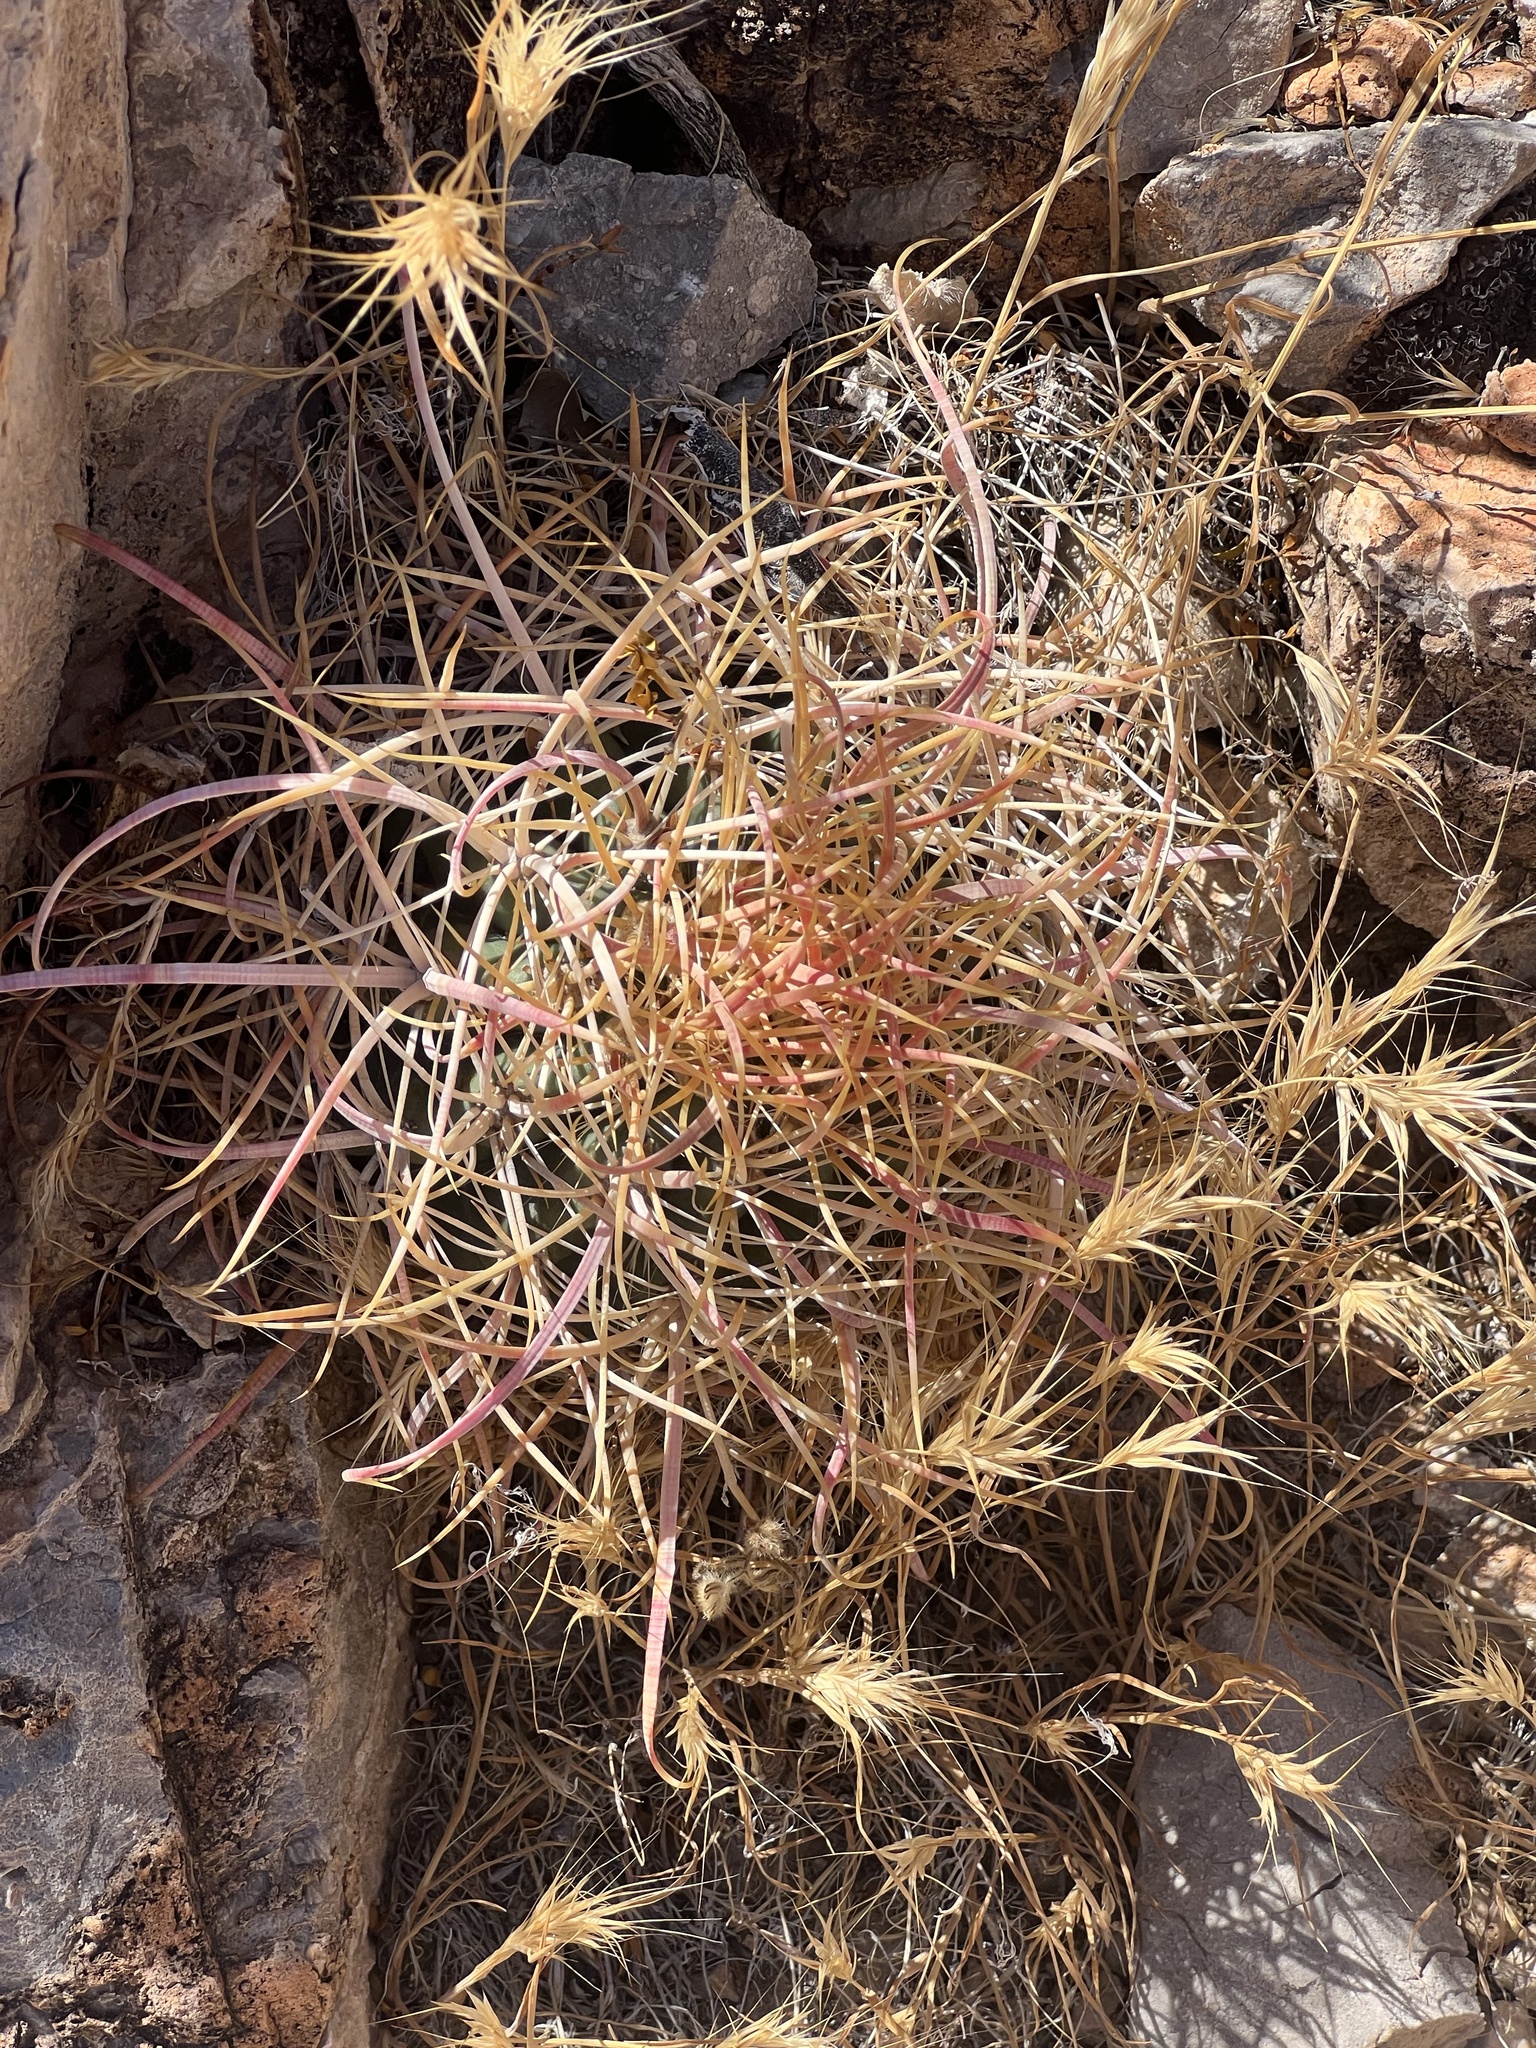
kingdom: Plantae
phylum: Tracheophyta
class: Magnoliopsida
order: Caryophyllales
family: Cactaceae
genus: Ferocactus
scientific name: Ferocactus cylindraceus
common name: California barrel cactus
